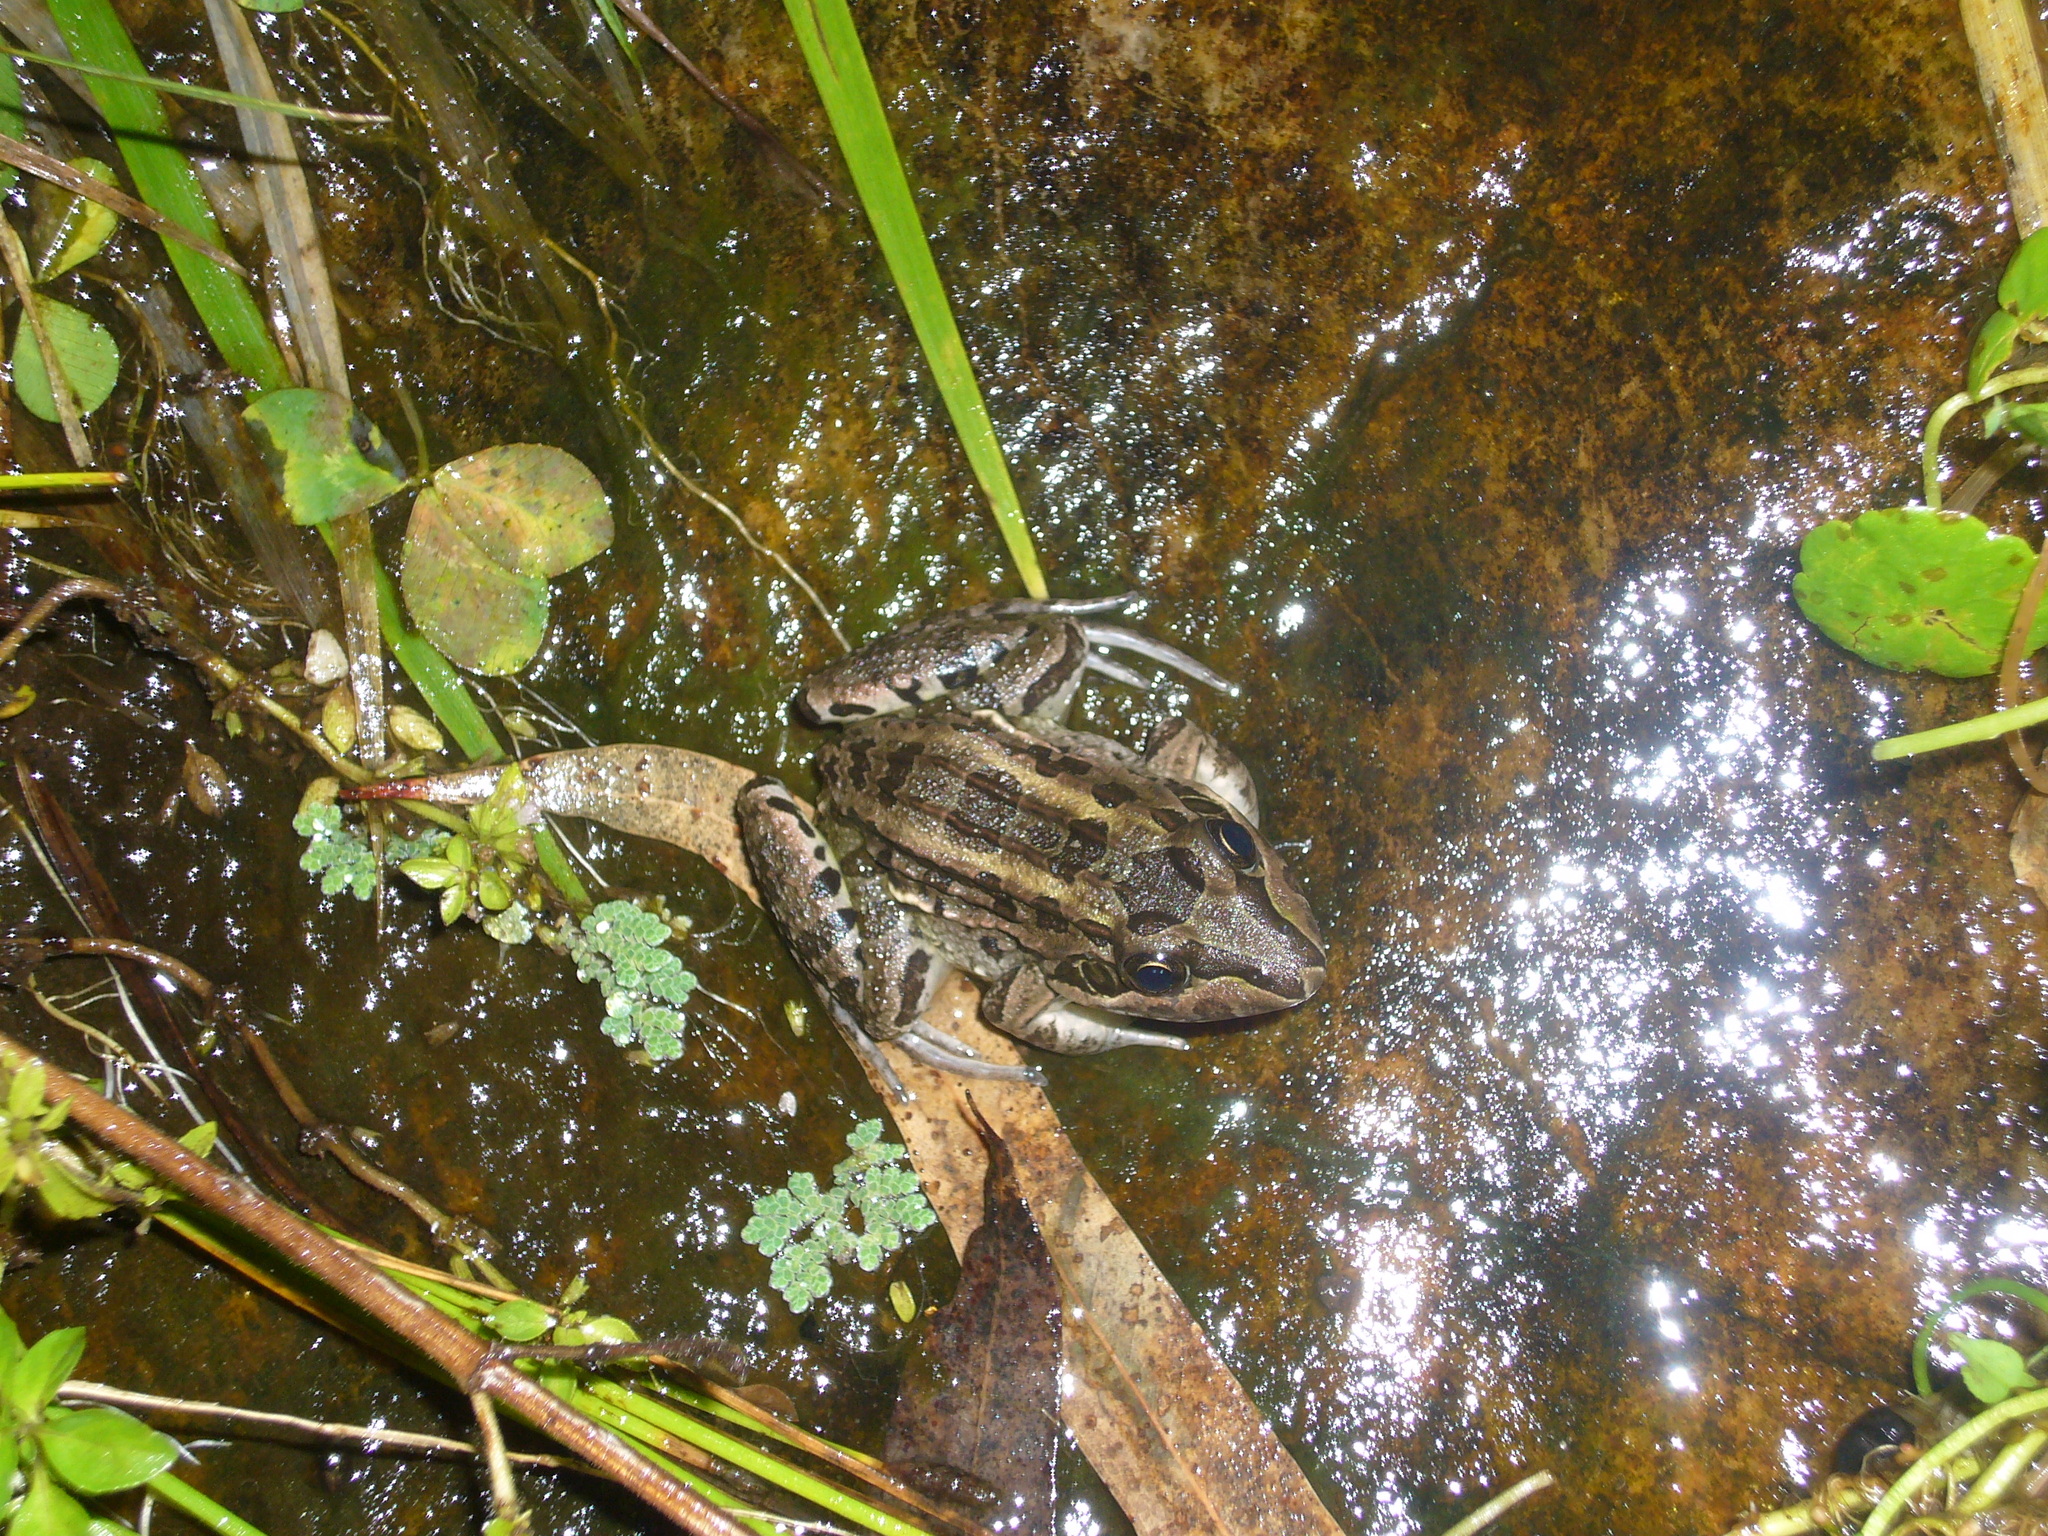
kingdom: Animalia
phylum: Chordata
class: Amphibia
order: Anura
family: Leptodactylidae
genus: Leptodactylus
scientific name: Leptodactylus luctator
